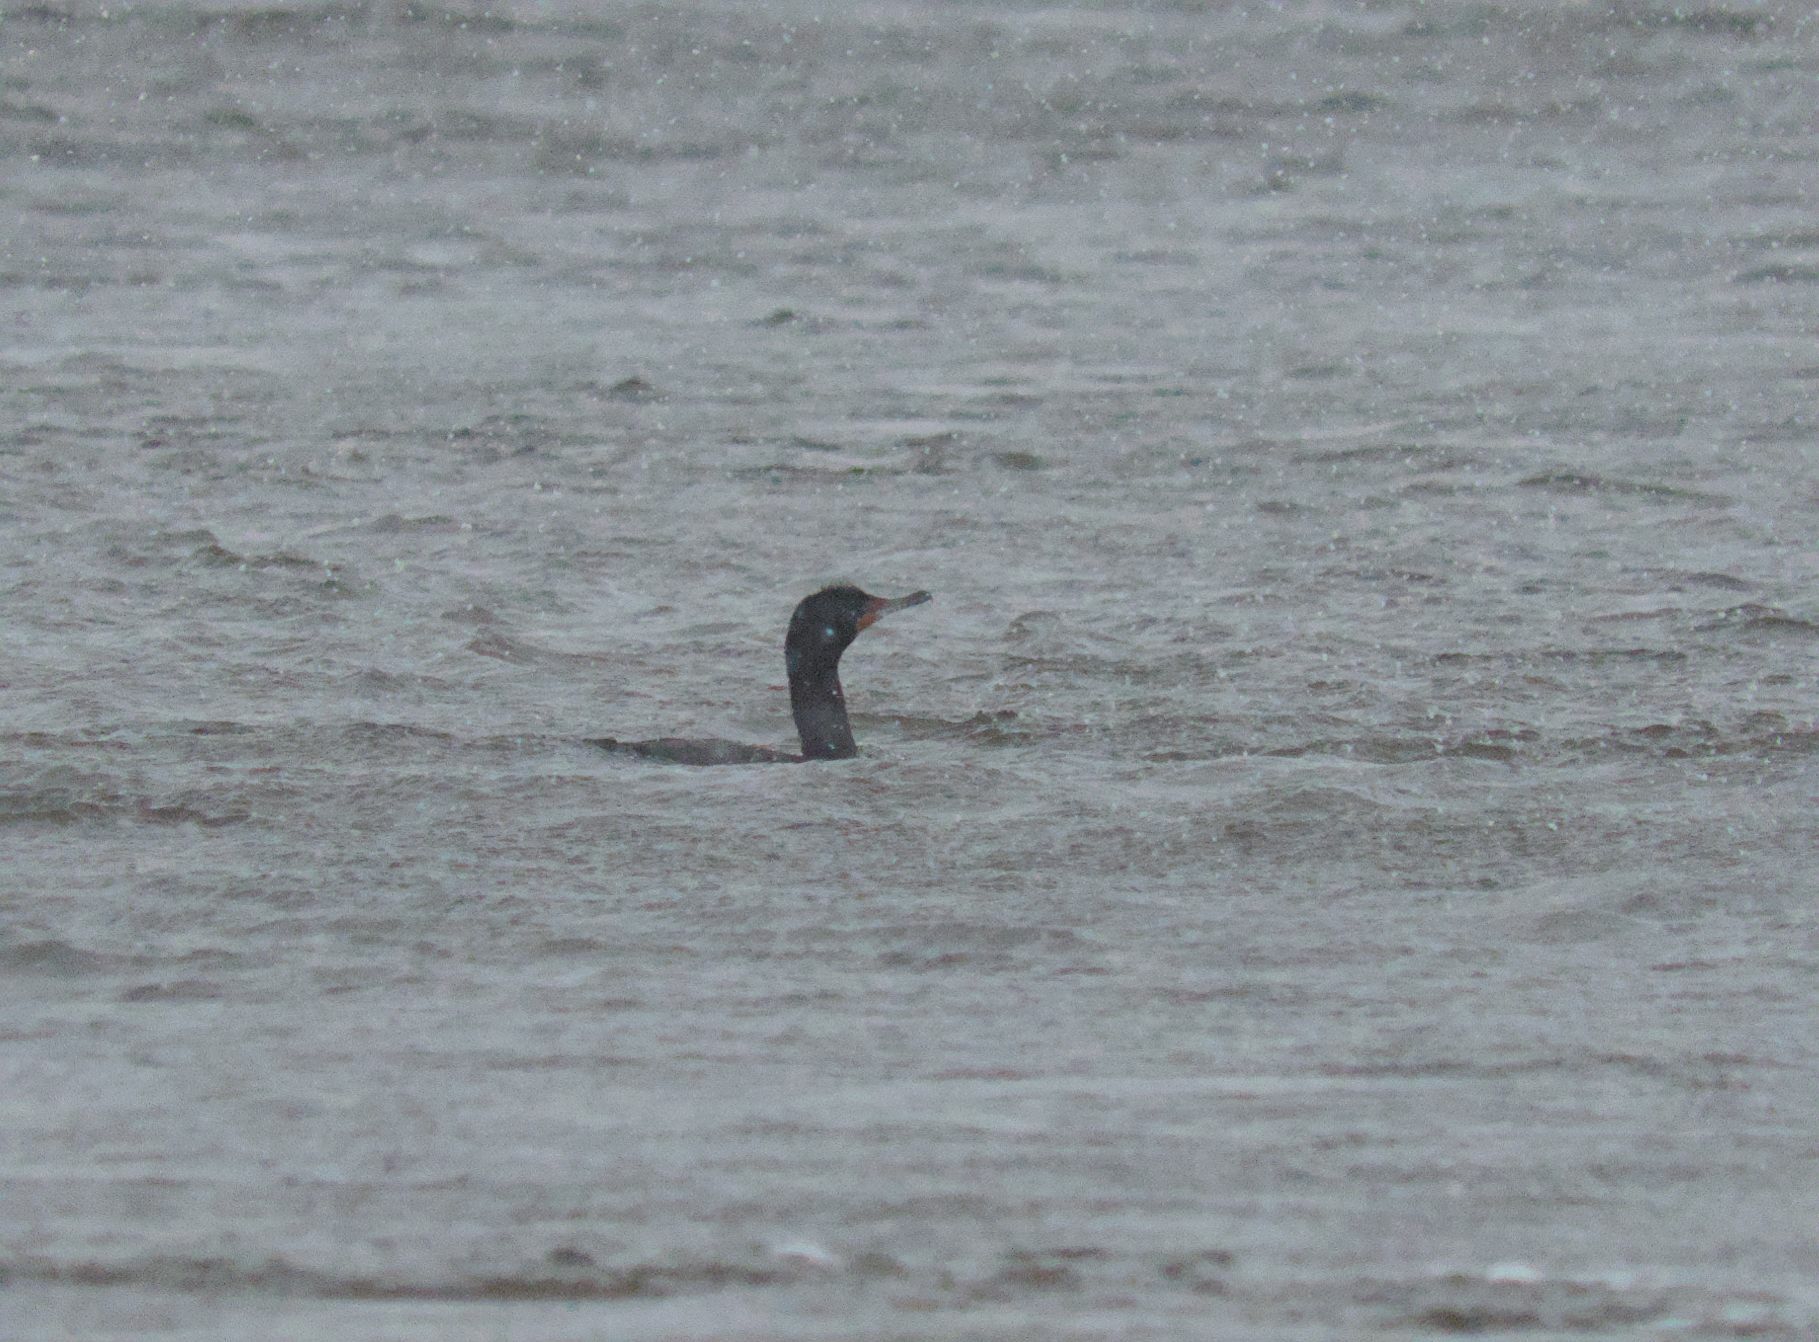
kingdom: Animalia
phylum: Chordata
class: Aves
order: Suliformes
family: Phalacrocoracidae
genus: Phalacrocorax
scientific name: Phalacrocorax auritus
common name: Double-crested cormorant
